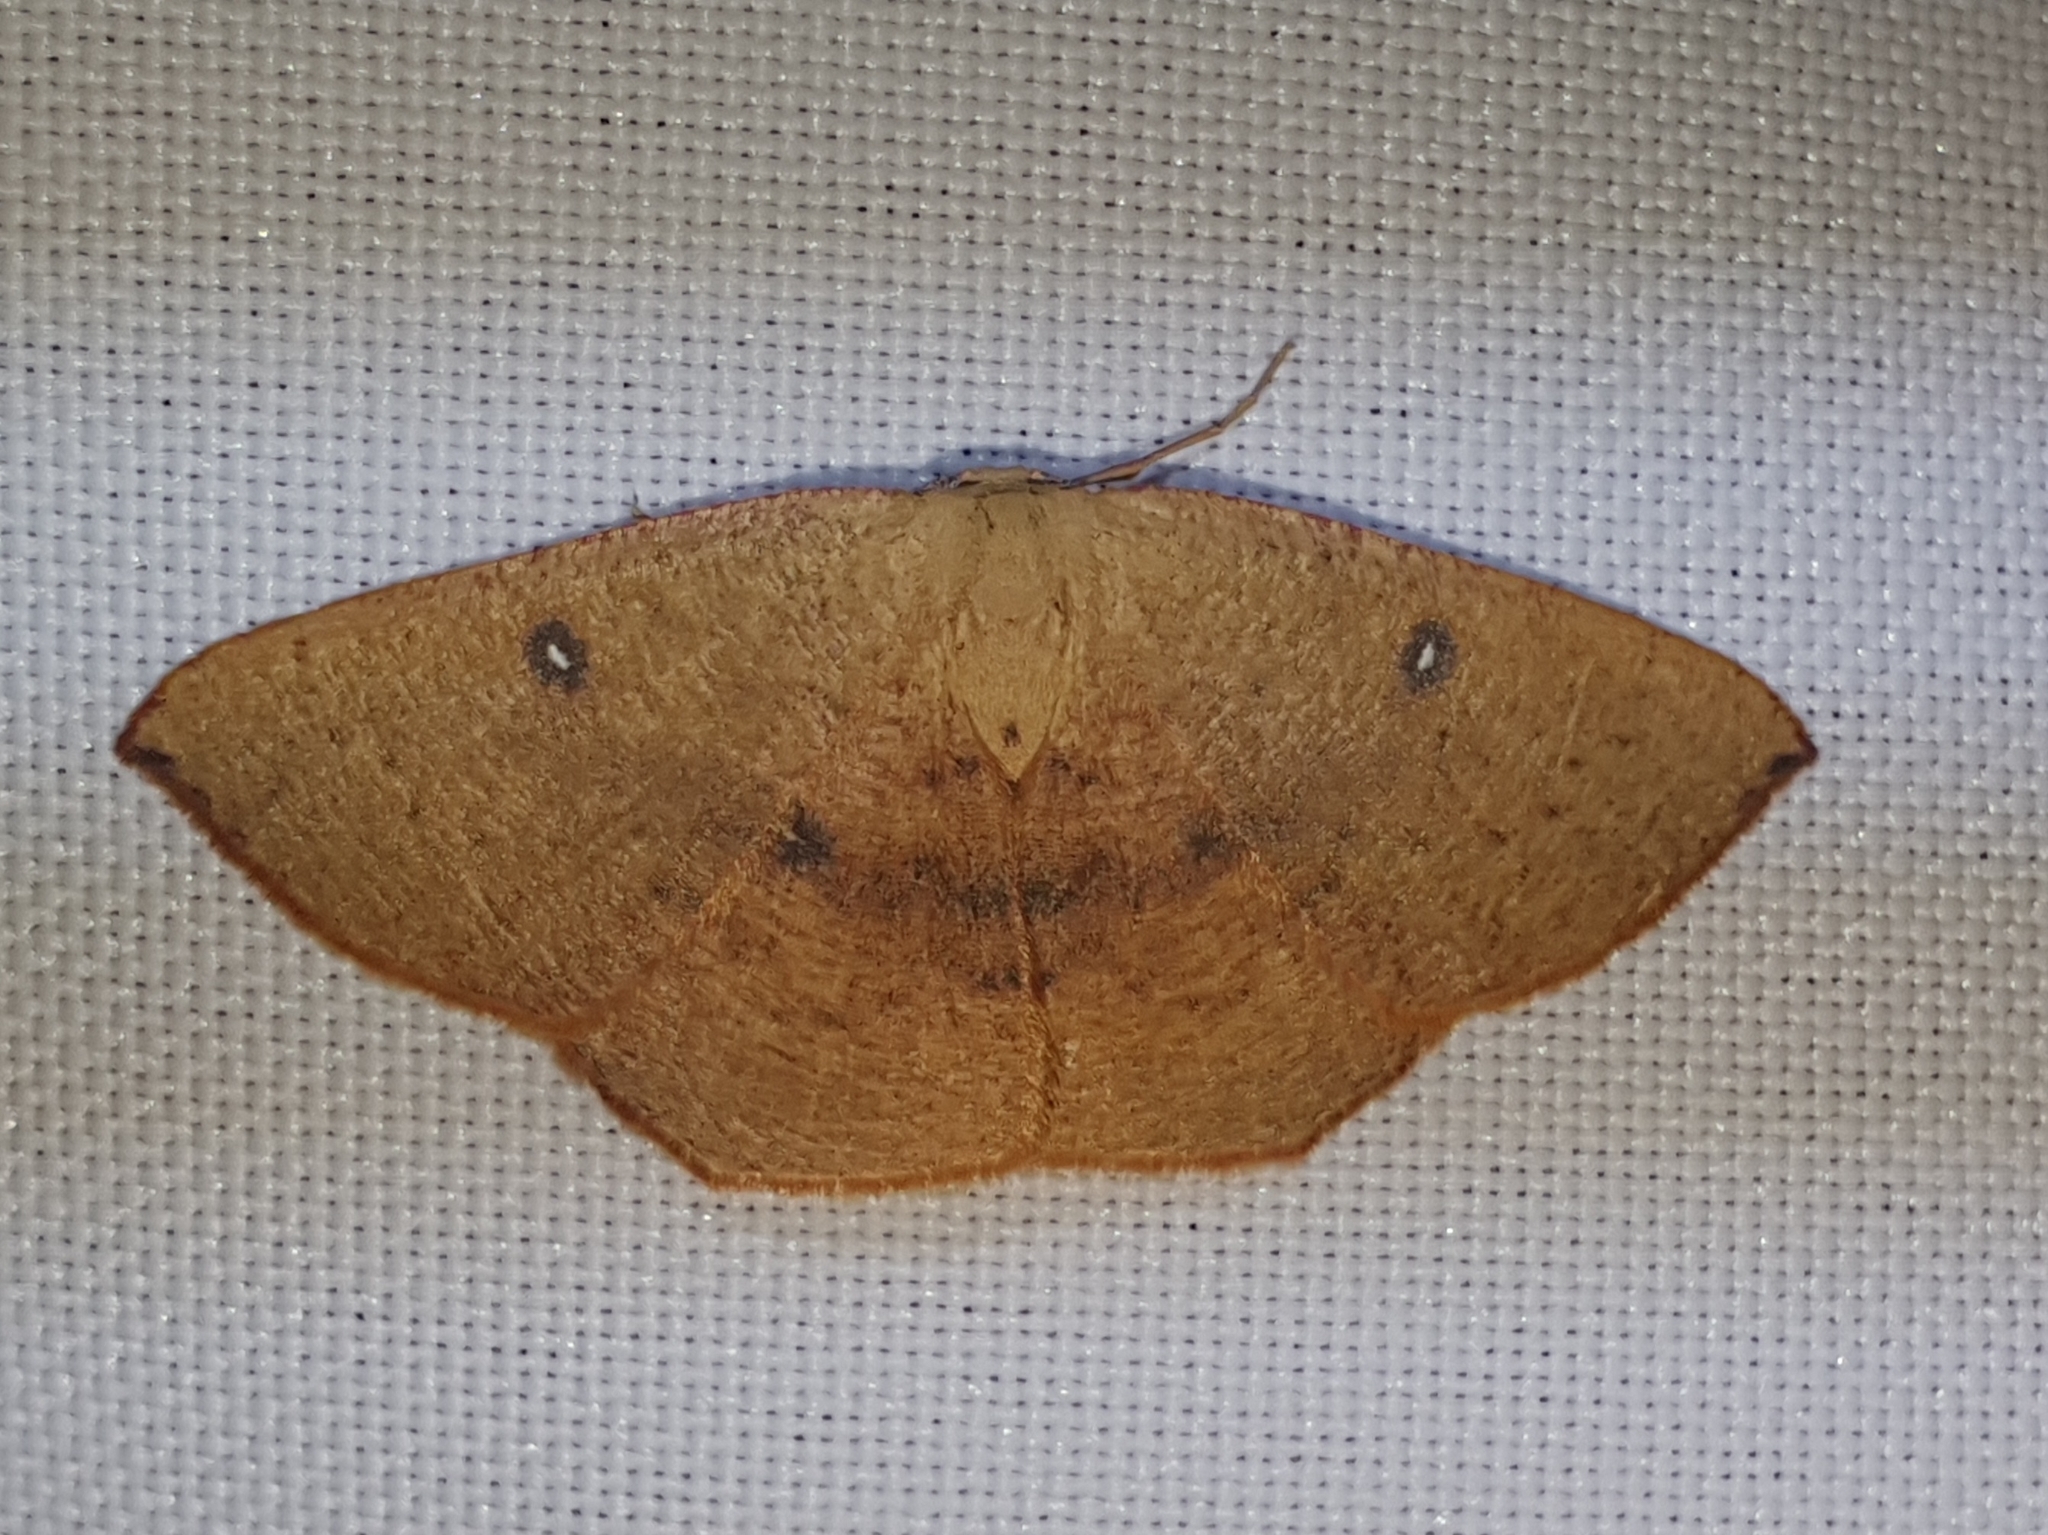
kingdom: Animalia
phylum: Arthropoda
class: Insecta
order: Lepidoptera
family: Geometridae
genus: Cyclophora
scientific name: Cyclophora puppillaria
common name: Blair's mocha
